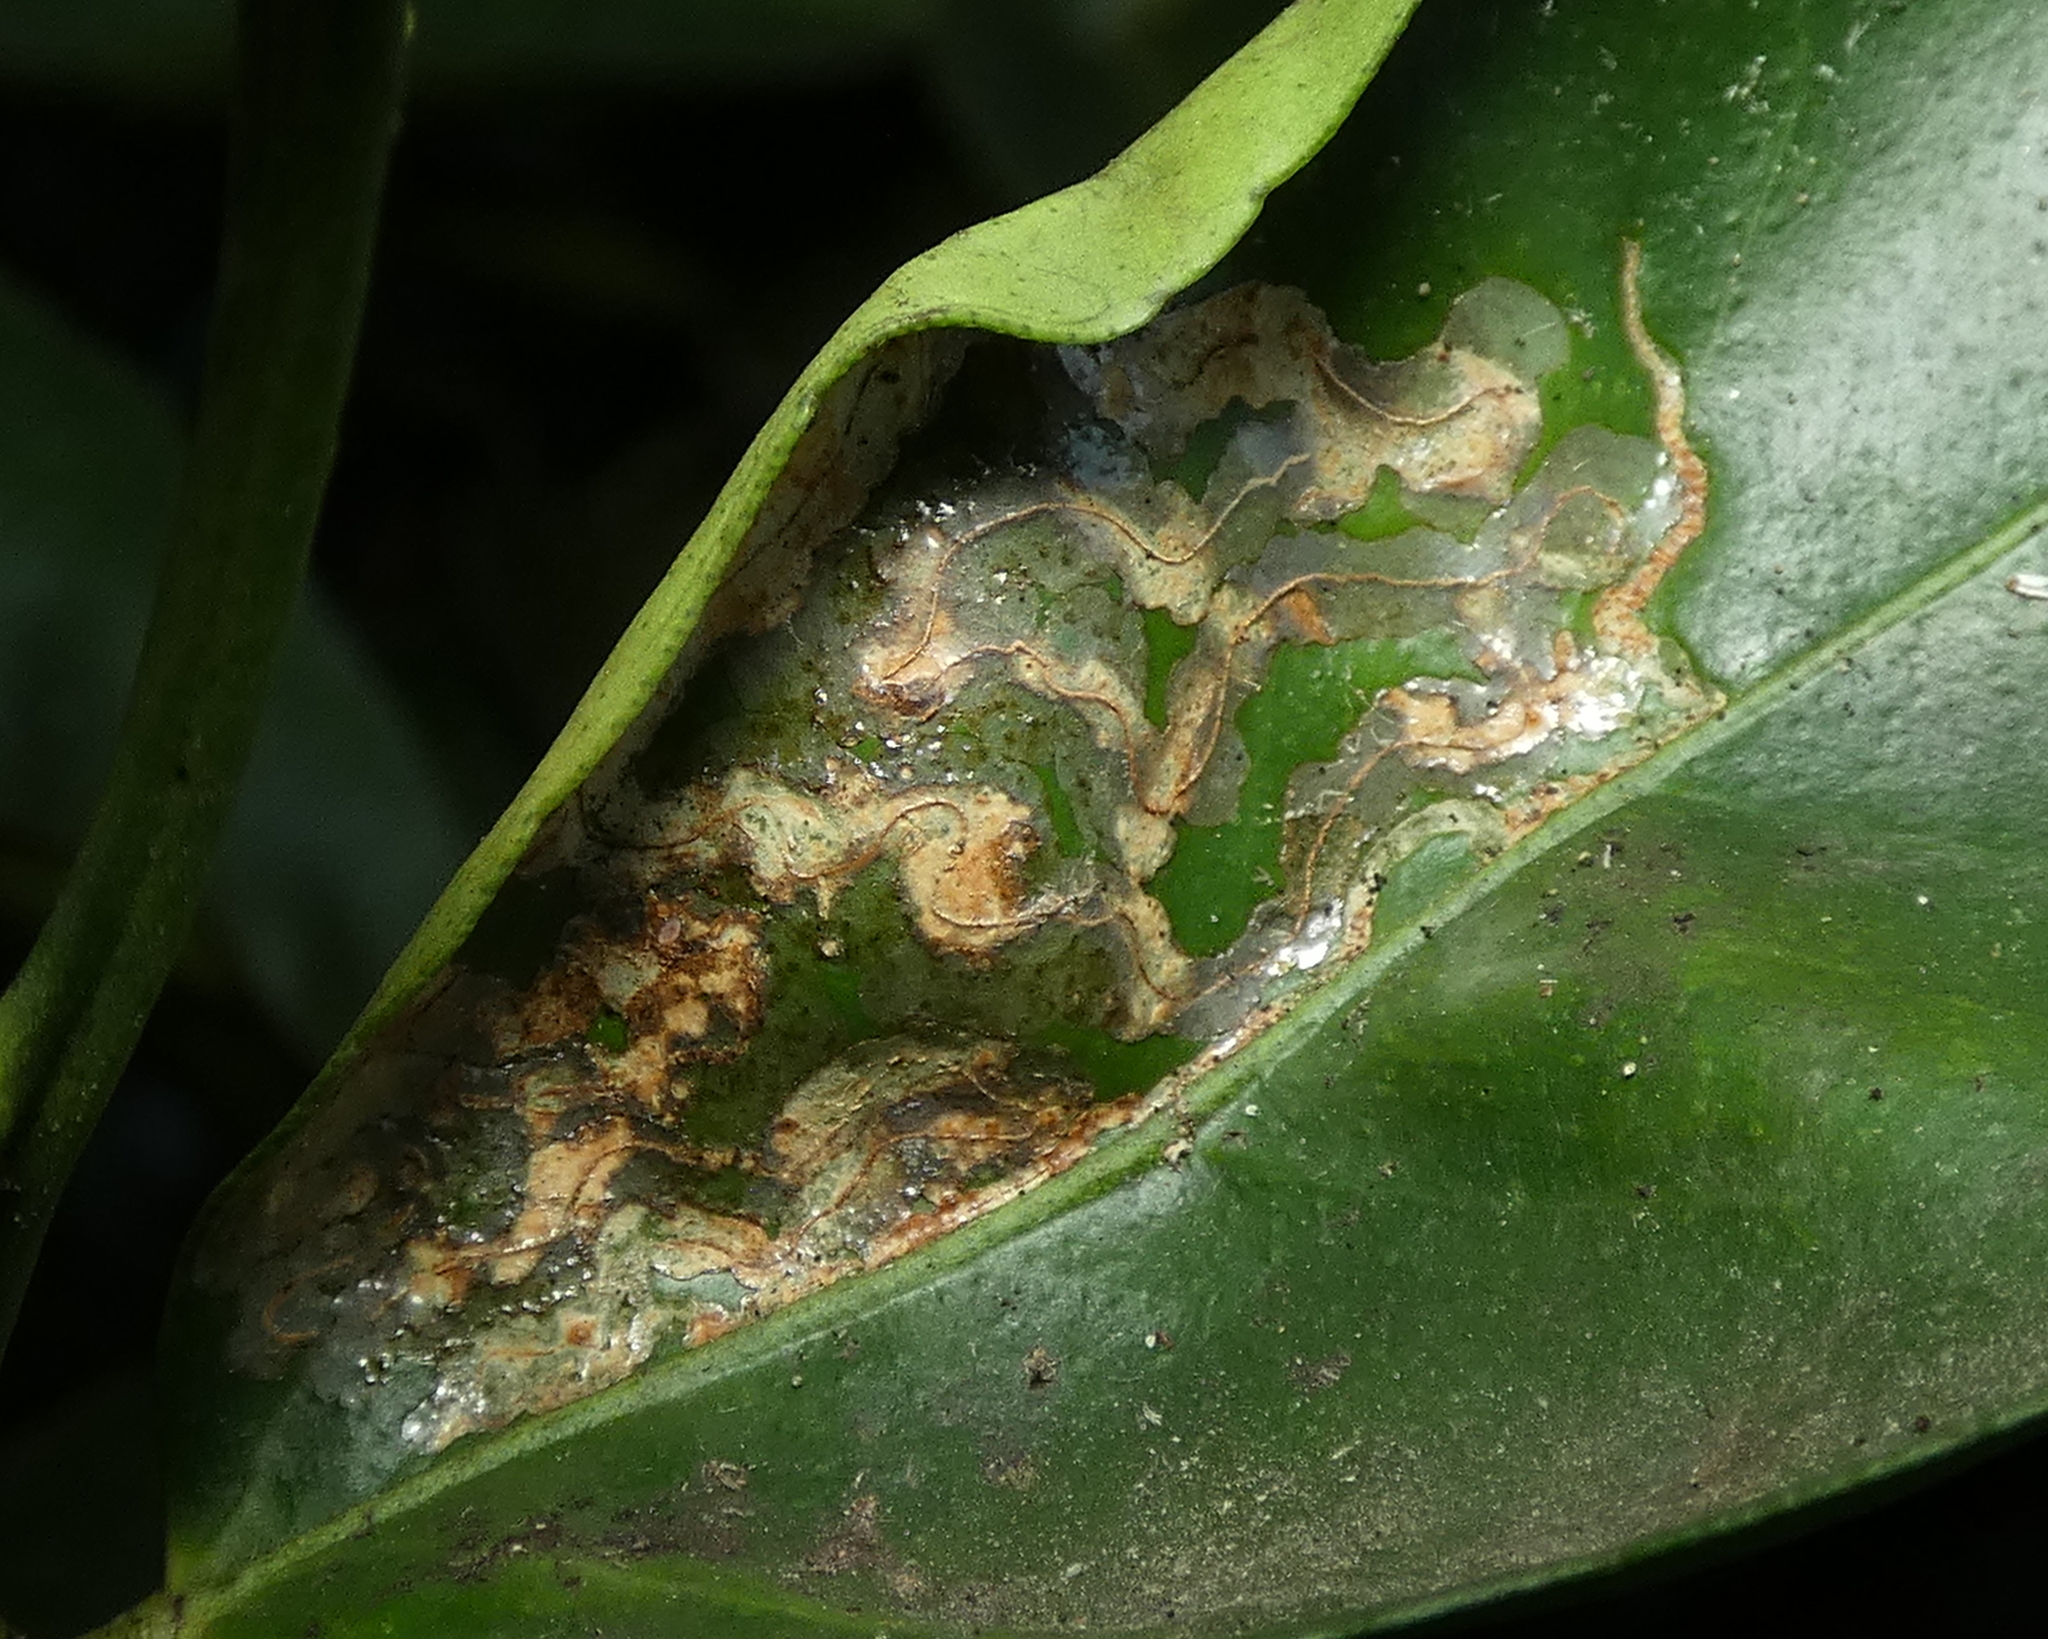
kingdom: Animalia
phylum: Arthropoda
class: Insecta
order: Lepidoptera
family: Gracillariidae
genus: Phyllocnistis
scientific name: Phyllocnistis citrella
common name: Citrus leafminer
